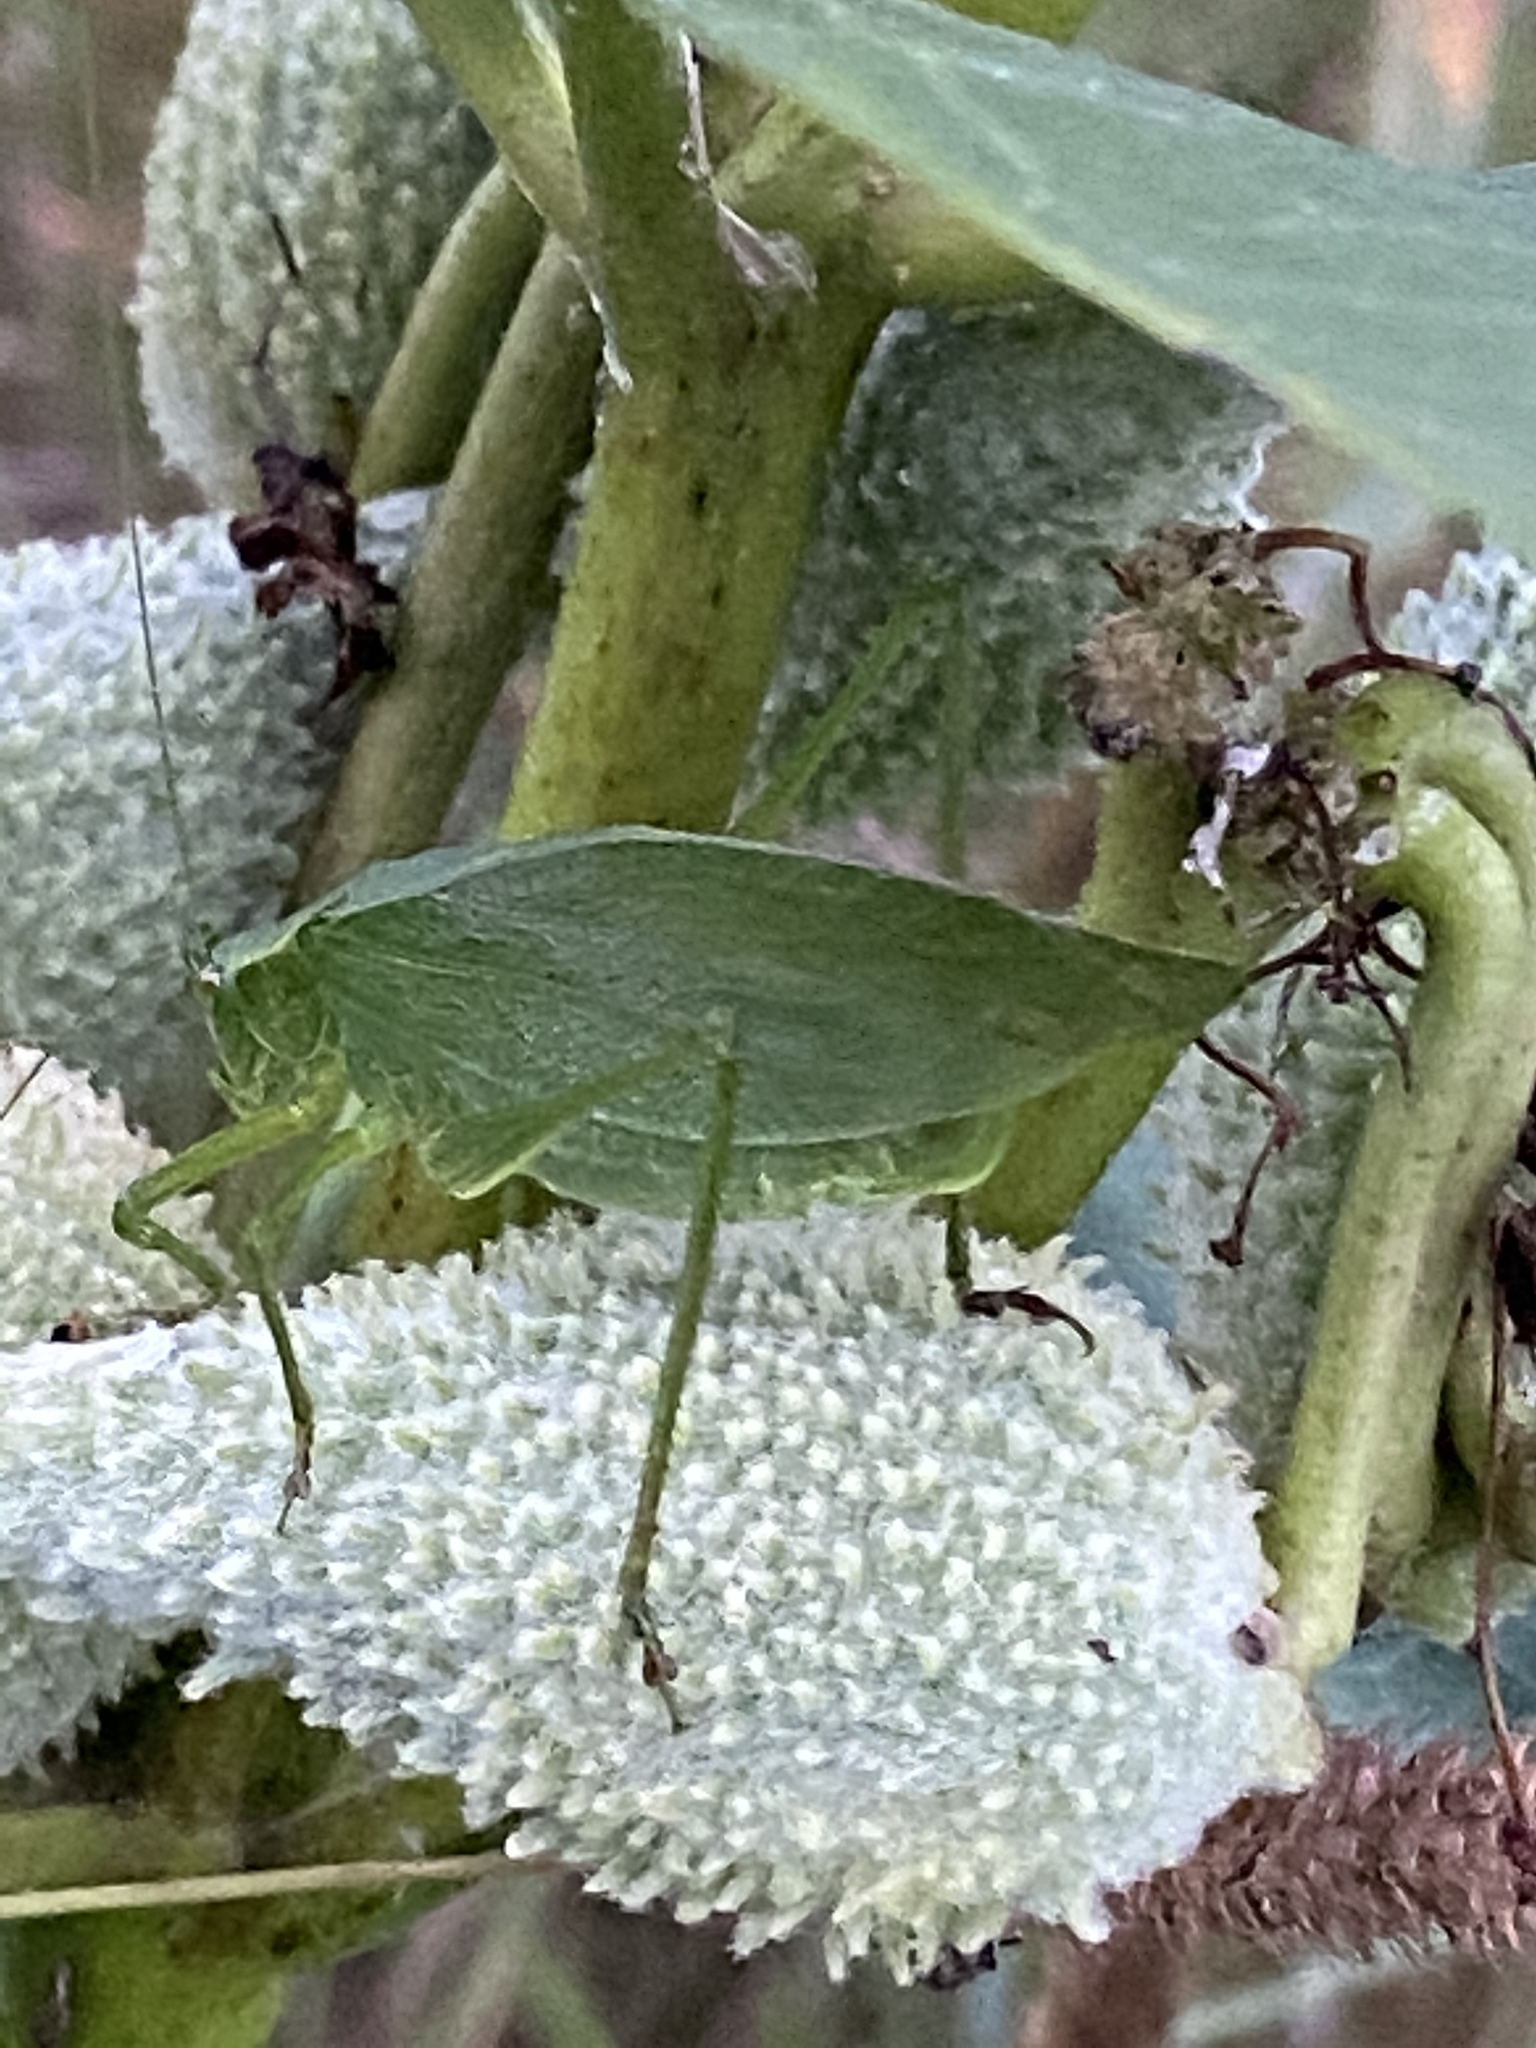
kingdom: Animalia
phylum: Arthropoda
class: Insecta
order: Orthoptera
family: Tettigoniidae
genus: Scudderia
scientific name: Scudderia pistillata
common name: Broad-winged bush-katydid
